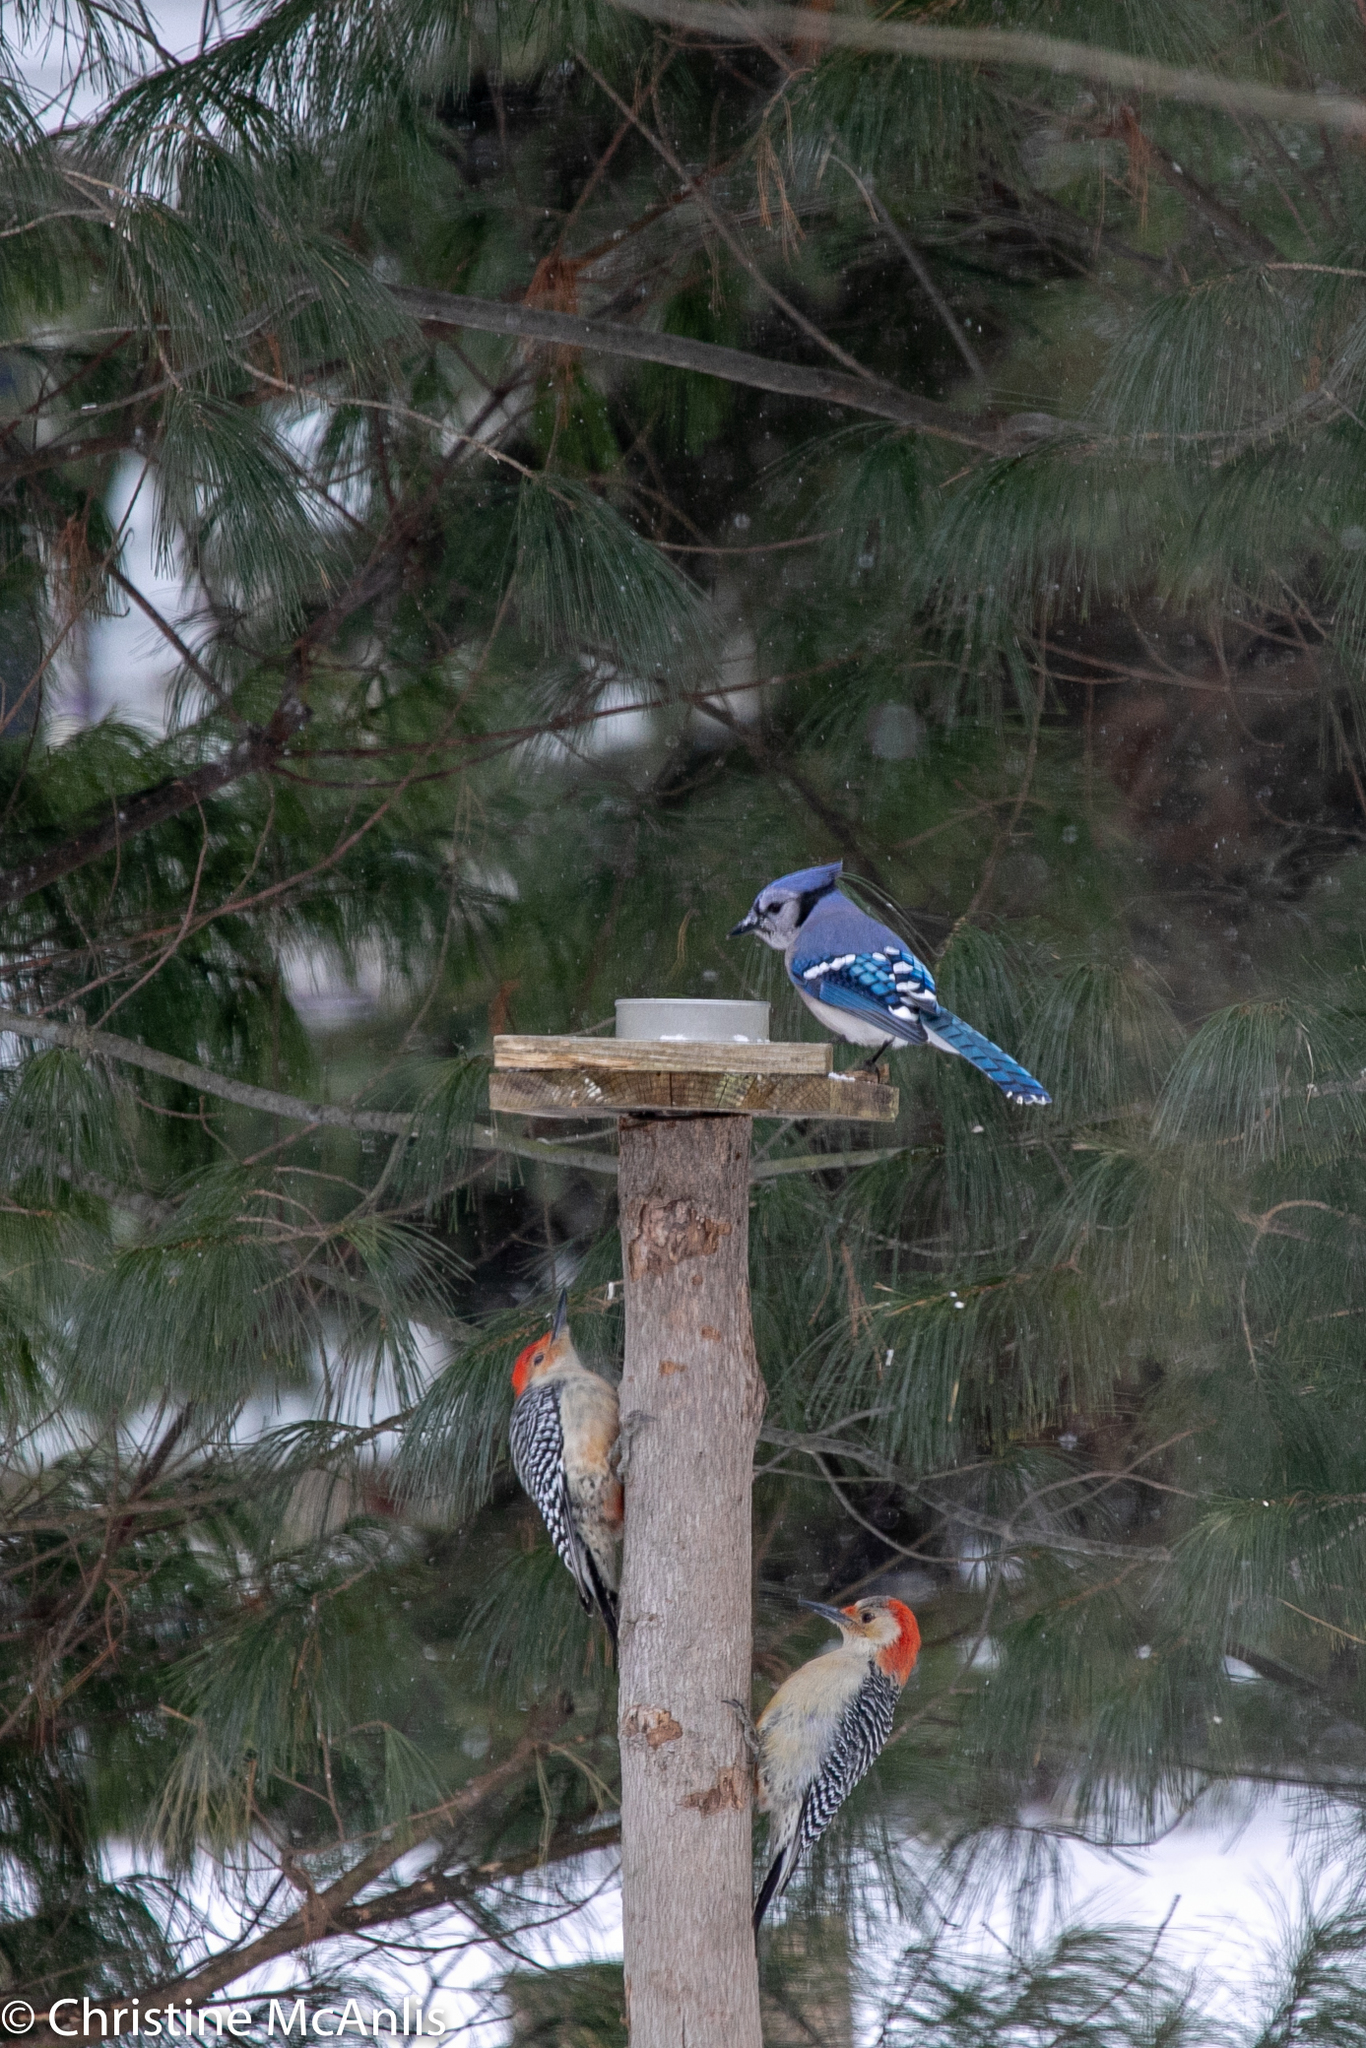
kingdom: Animalia
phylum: Chordata
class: Aves
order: Passeriformes
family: Corvidae
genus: Cyanocitta
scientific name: Cyanocitta cristata
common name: Blue jay
